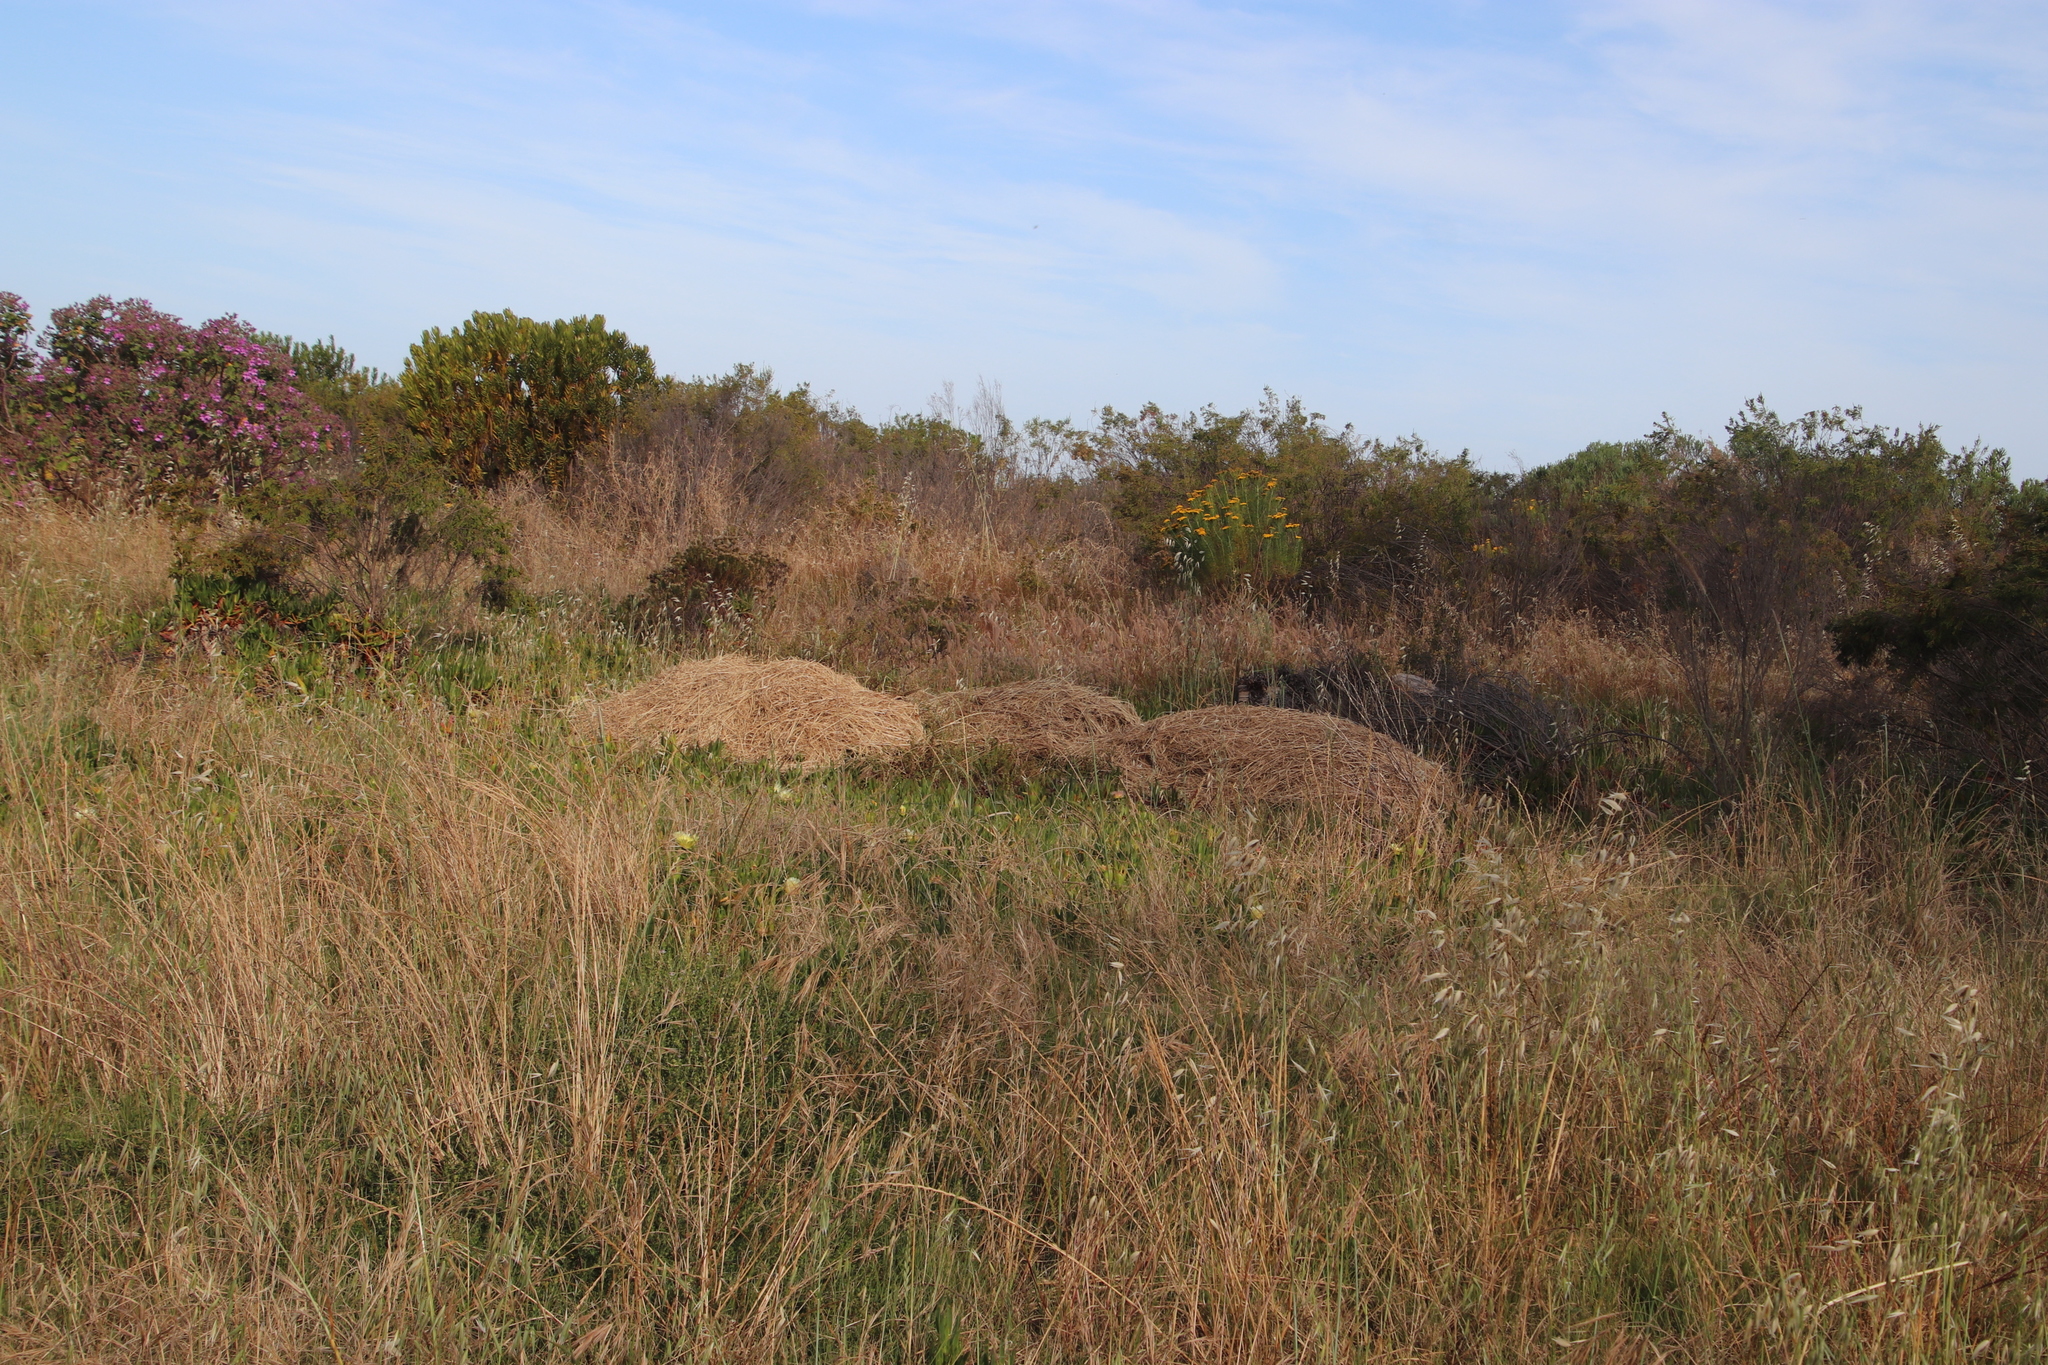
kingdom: Plantae
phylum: Tracheophyta
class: Liliopsida
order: Poales
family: Poaceae
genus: Cenchrus
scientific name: Cenchrus clandestinus
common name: Kikuyugrass
